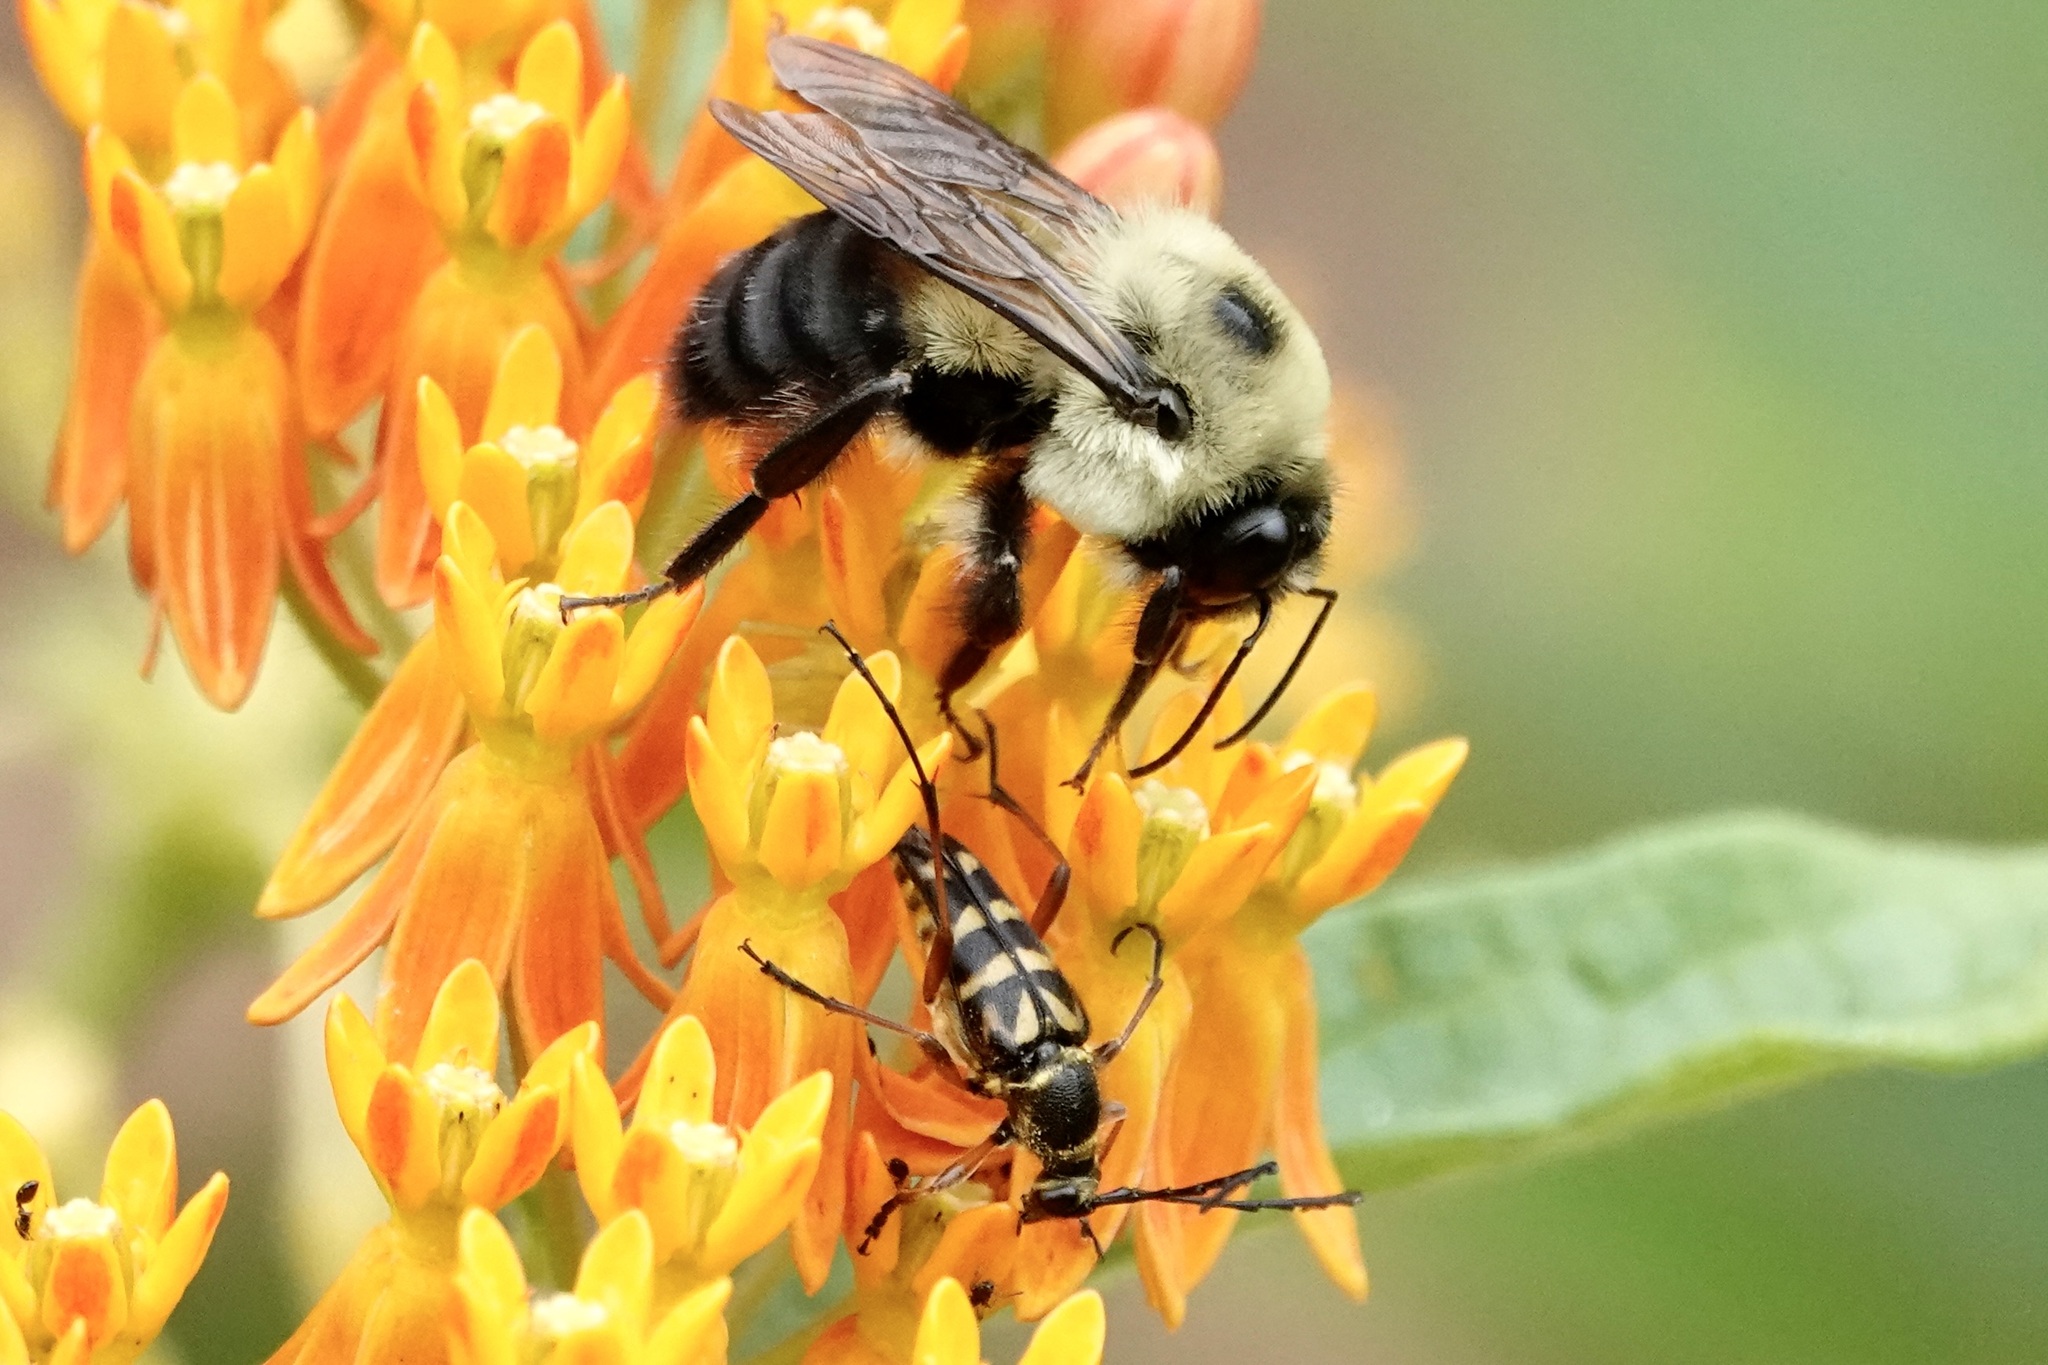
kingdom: Animalia
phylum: Arthropoda
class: Insecta
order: Coleoptera
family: Cerambycidae
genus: Typocerus
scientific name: Typocerus zebra
